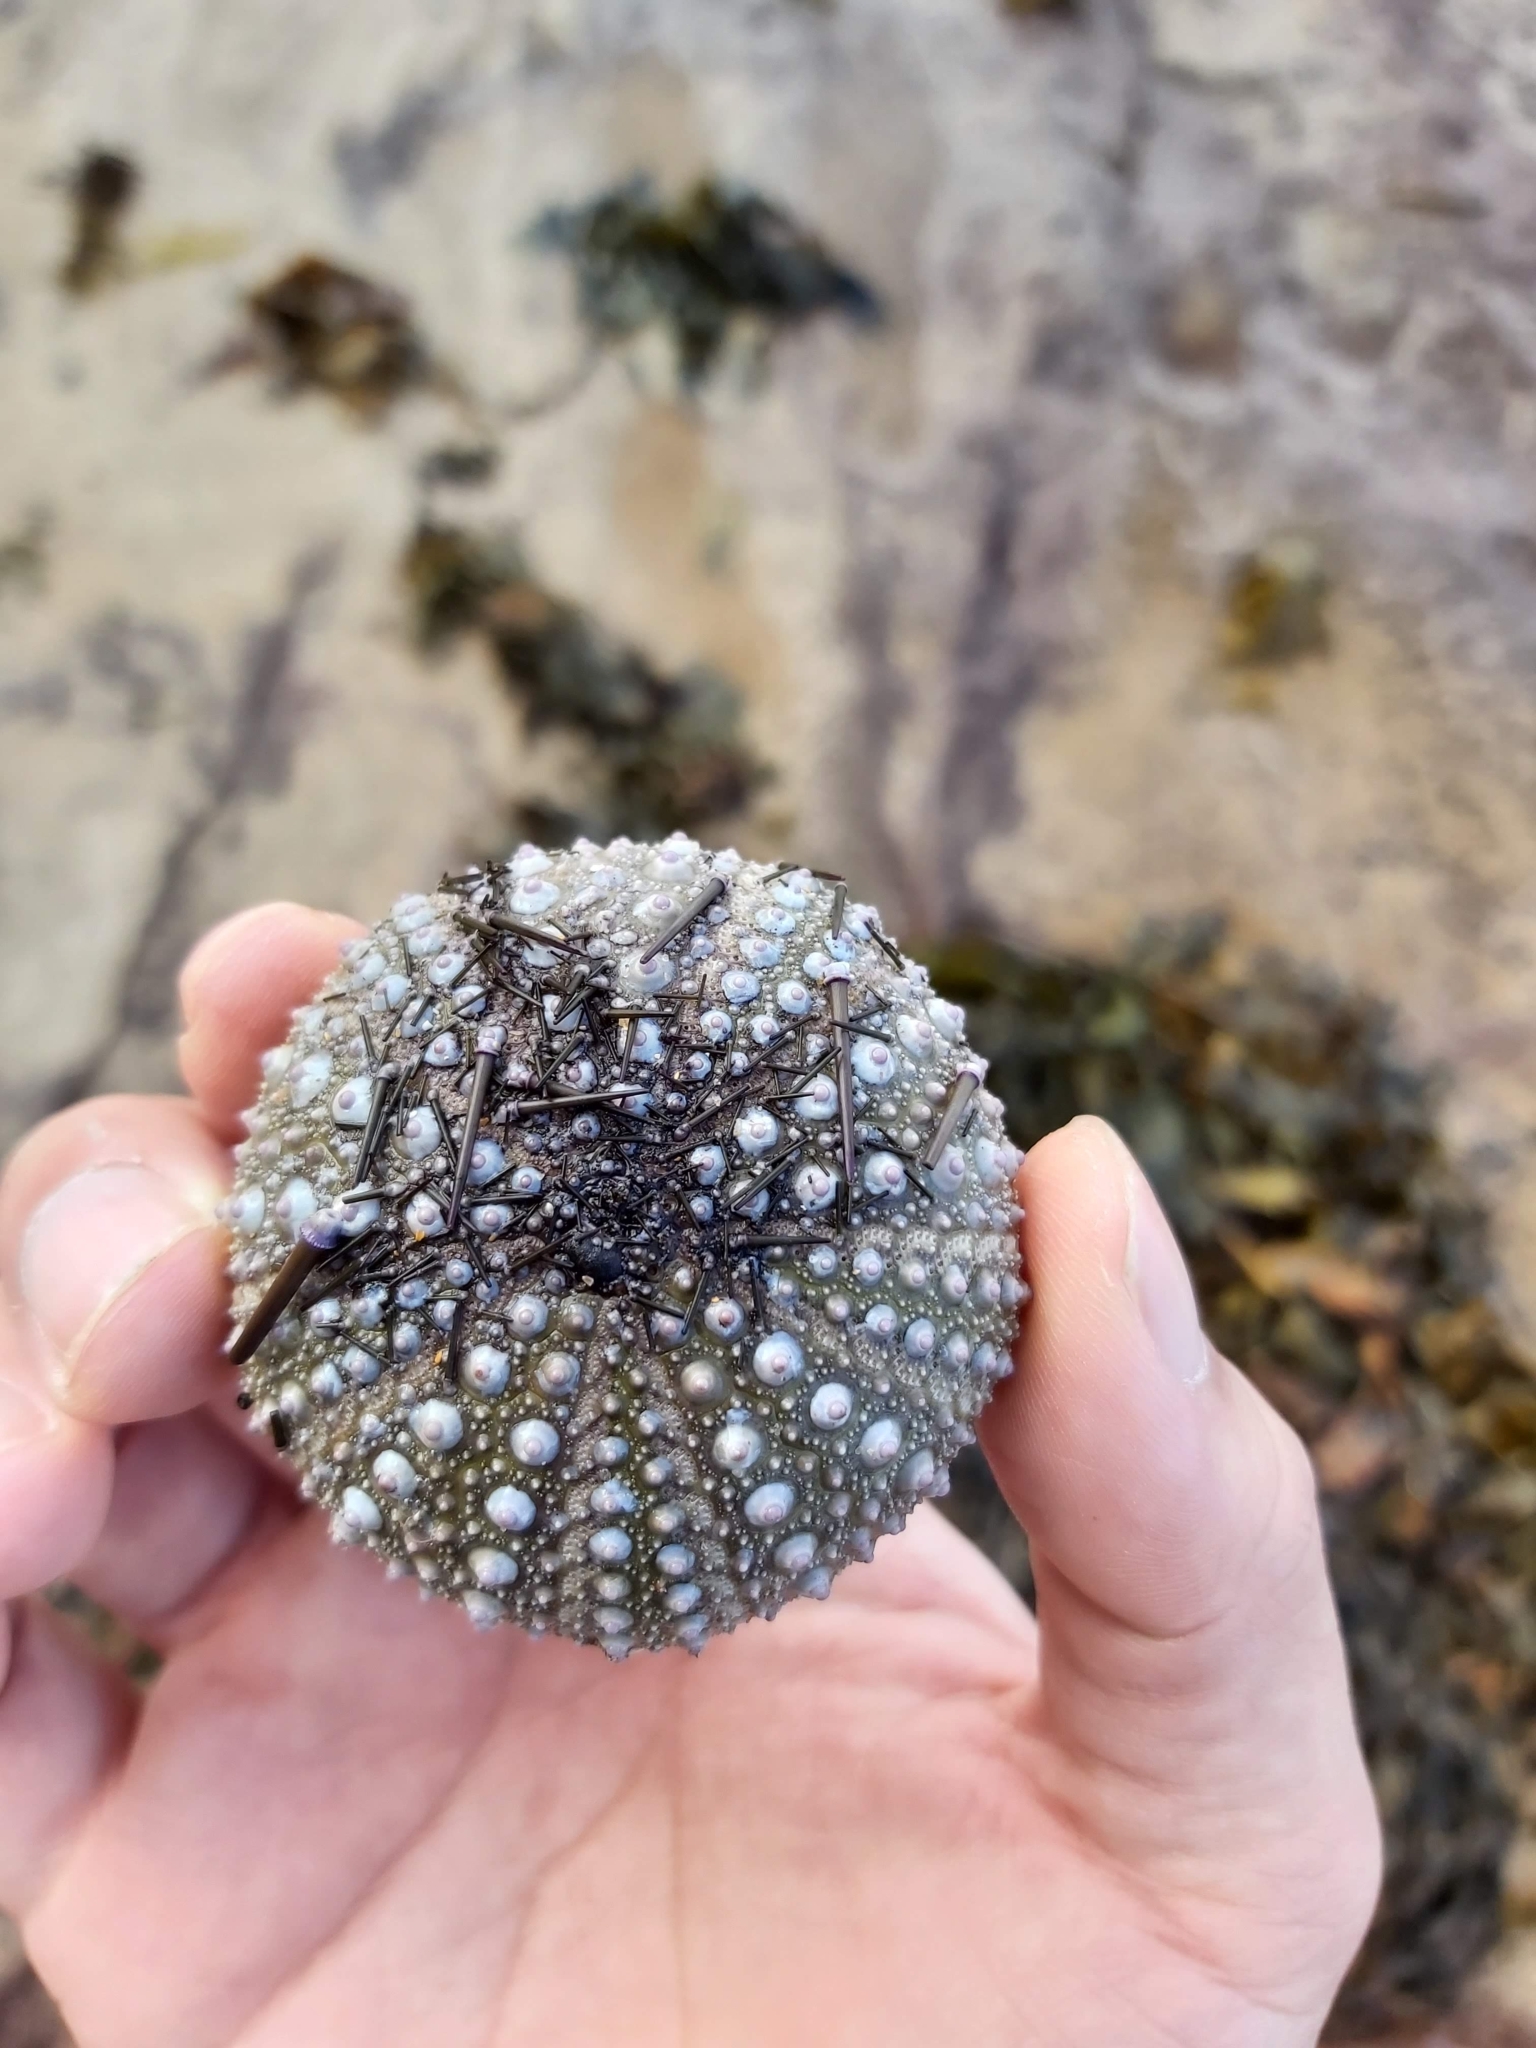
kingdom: Animalia
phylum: Echinodermata
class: Echinoidea
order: Camarodonta
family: Echinometridae
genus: Heliocidaris
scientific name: Heliocidaris erythrogramma
